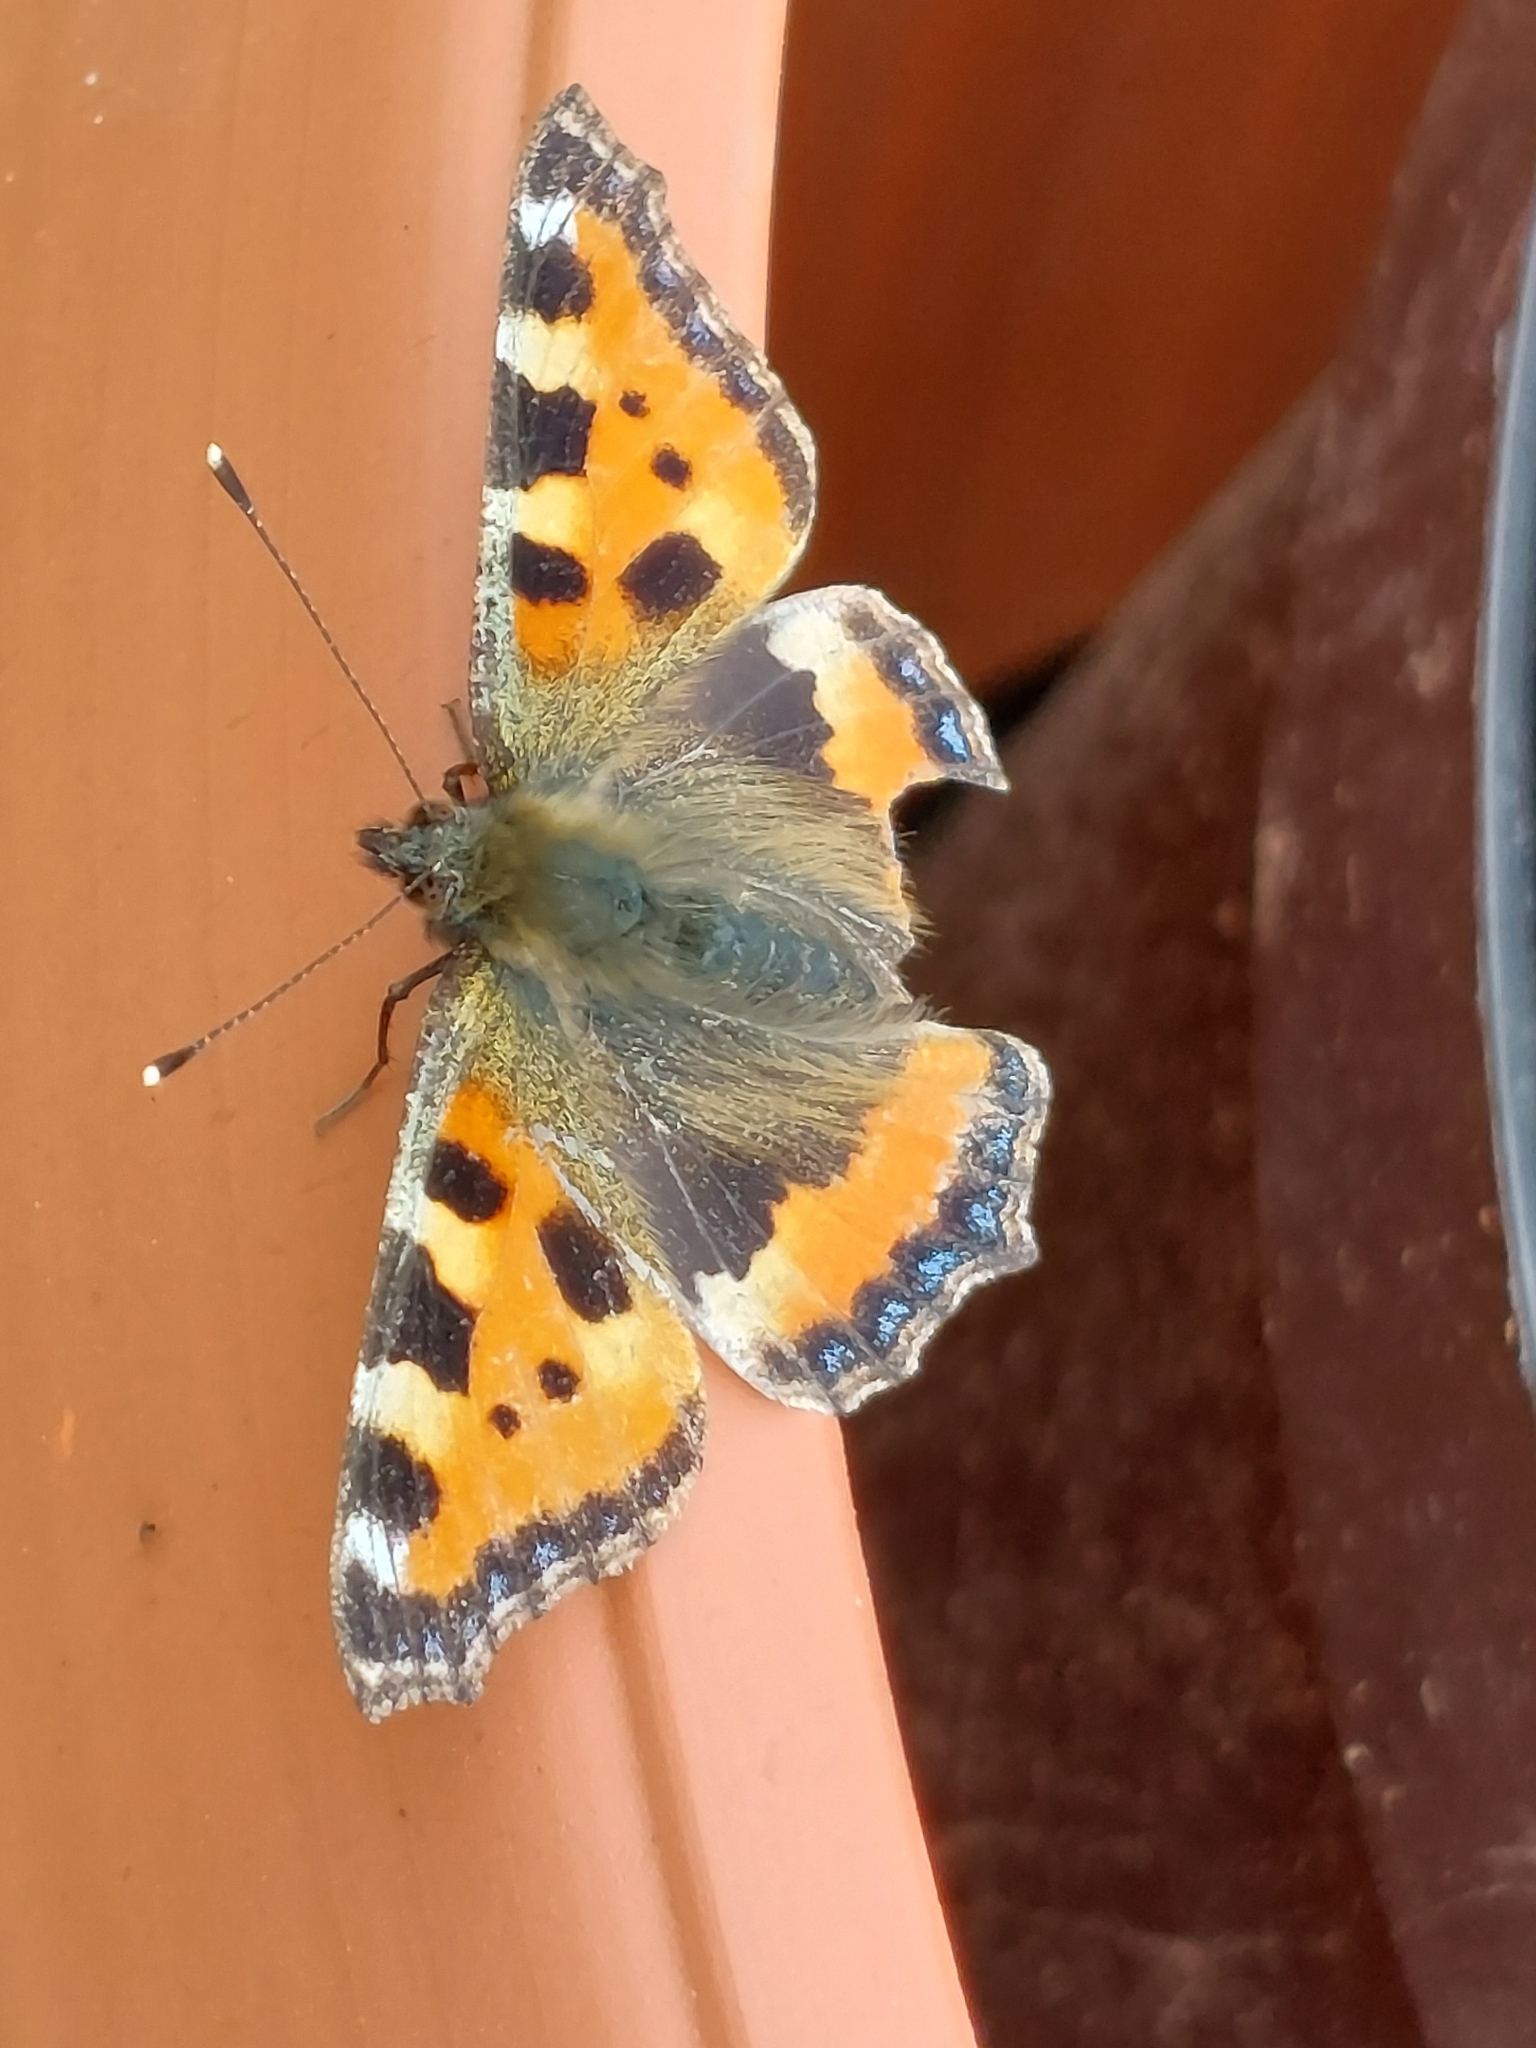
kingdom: Animalia
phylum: Arthropoda
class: Insecta
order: Lepidoptera
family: Nymphalidae
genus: Aglais
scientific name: Aglais urticae
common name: Small tortoiseshell
